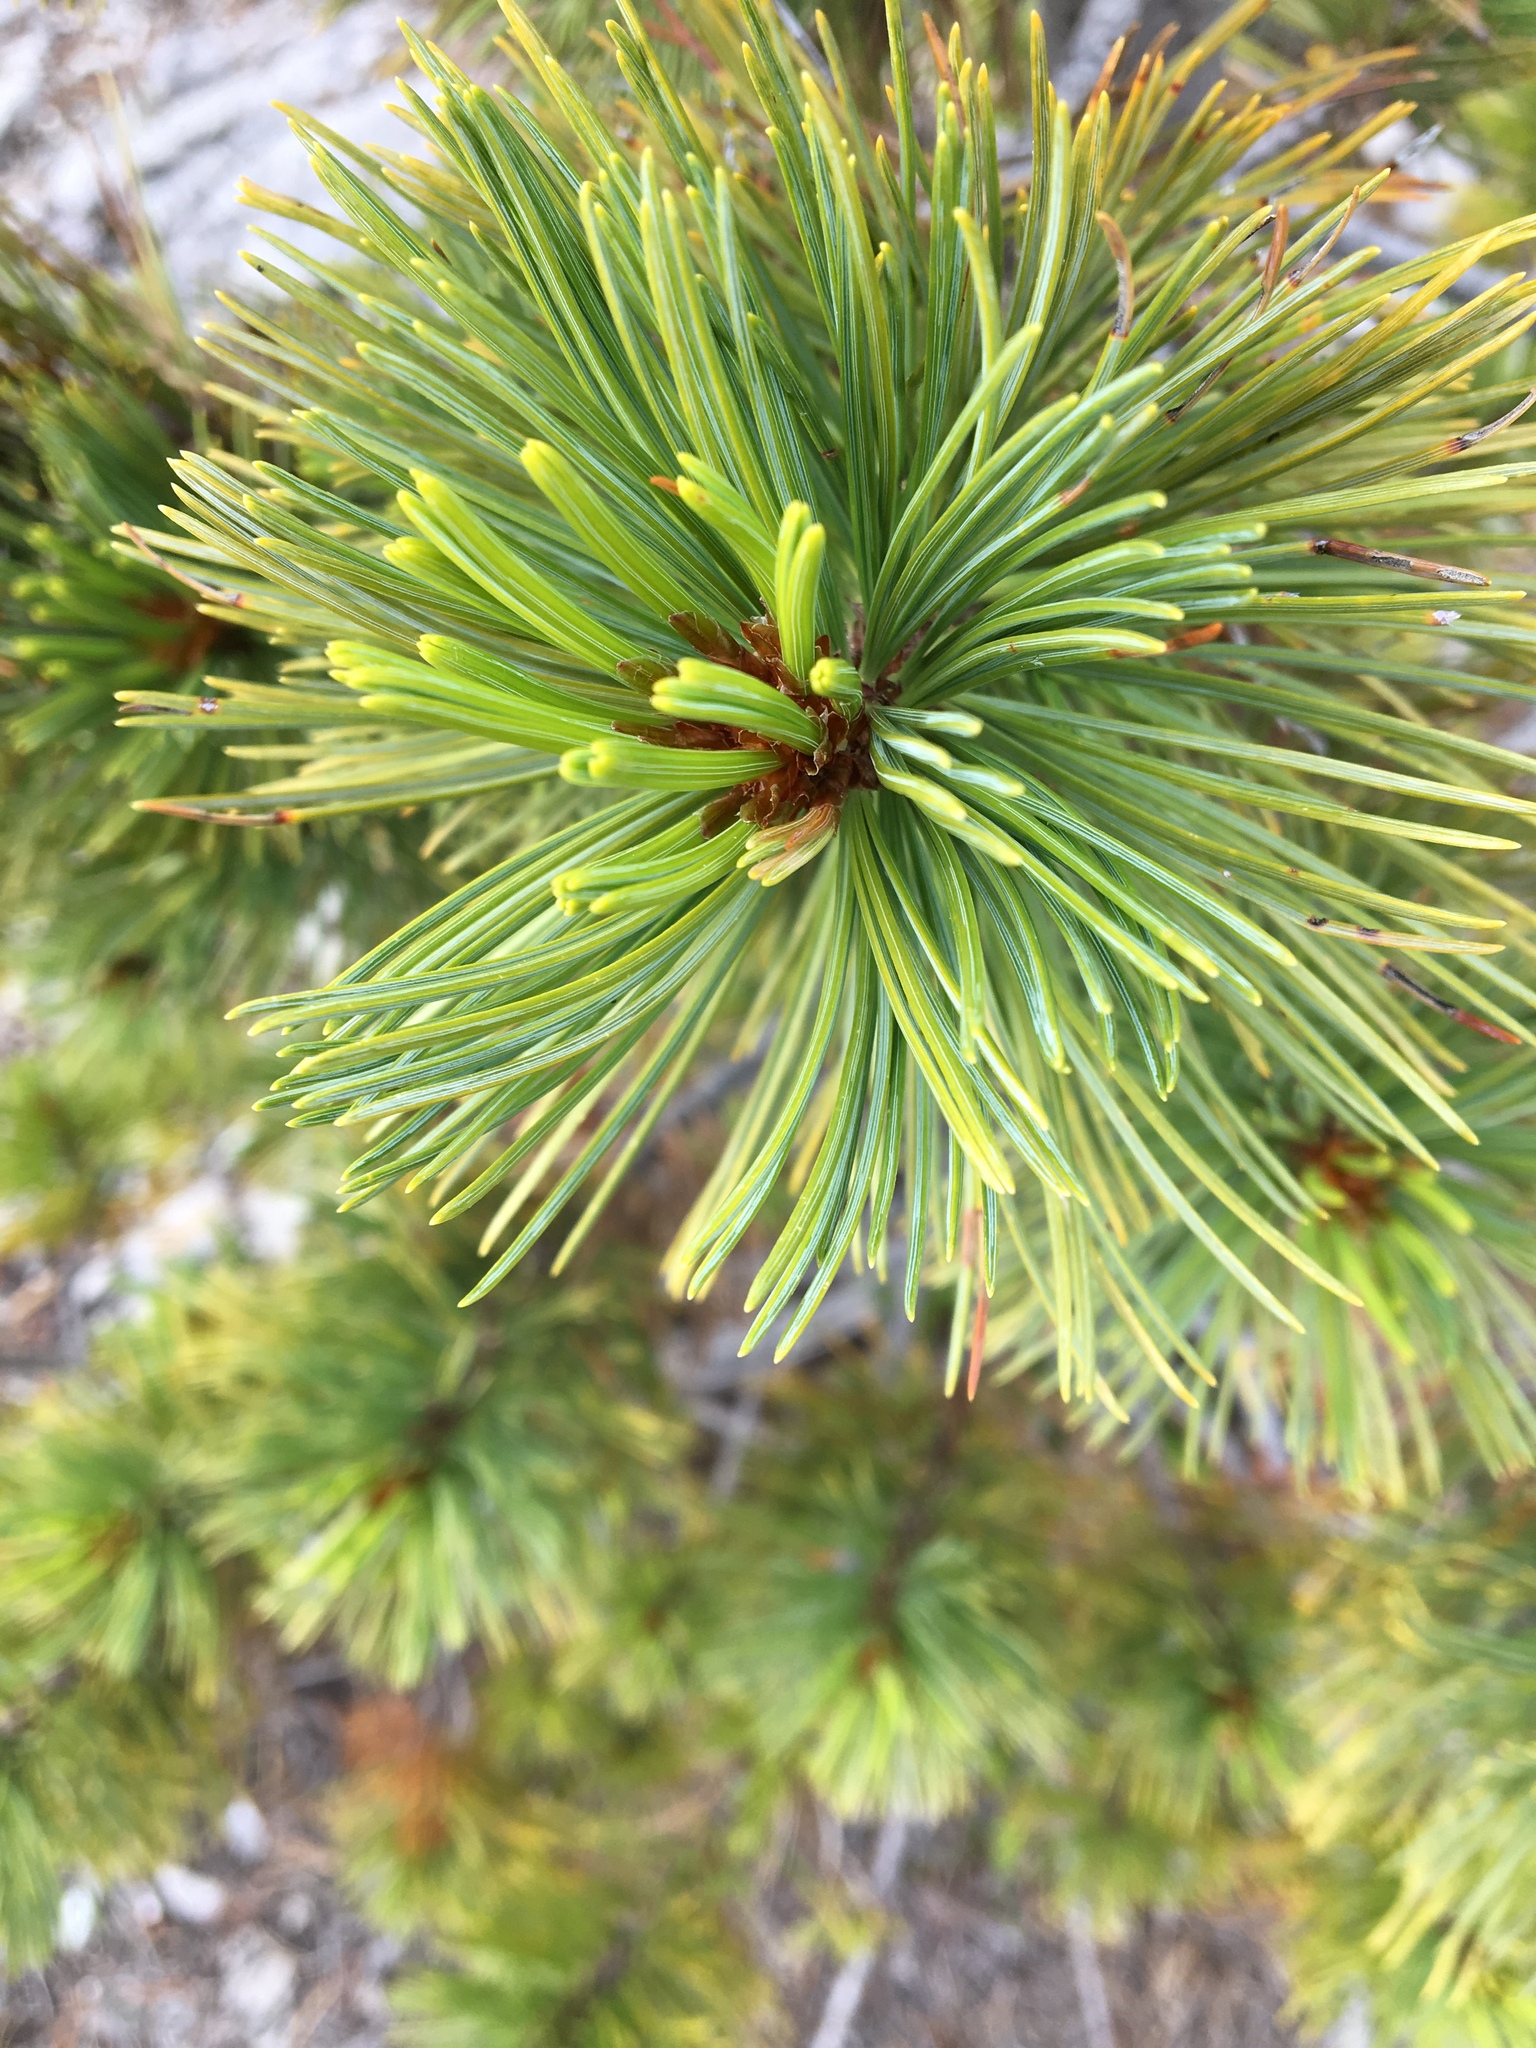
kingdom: Plantae
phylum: Tracheophyta
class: Pinopsida
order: Pinales
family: Pinaceae
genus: Pinus
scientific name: Pinus albicaulis
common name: Whitebark pine
